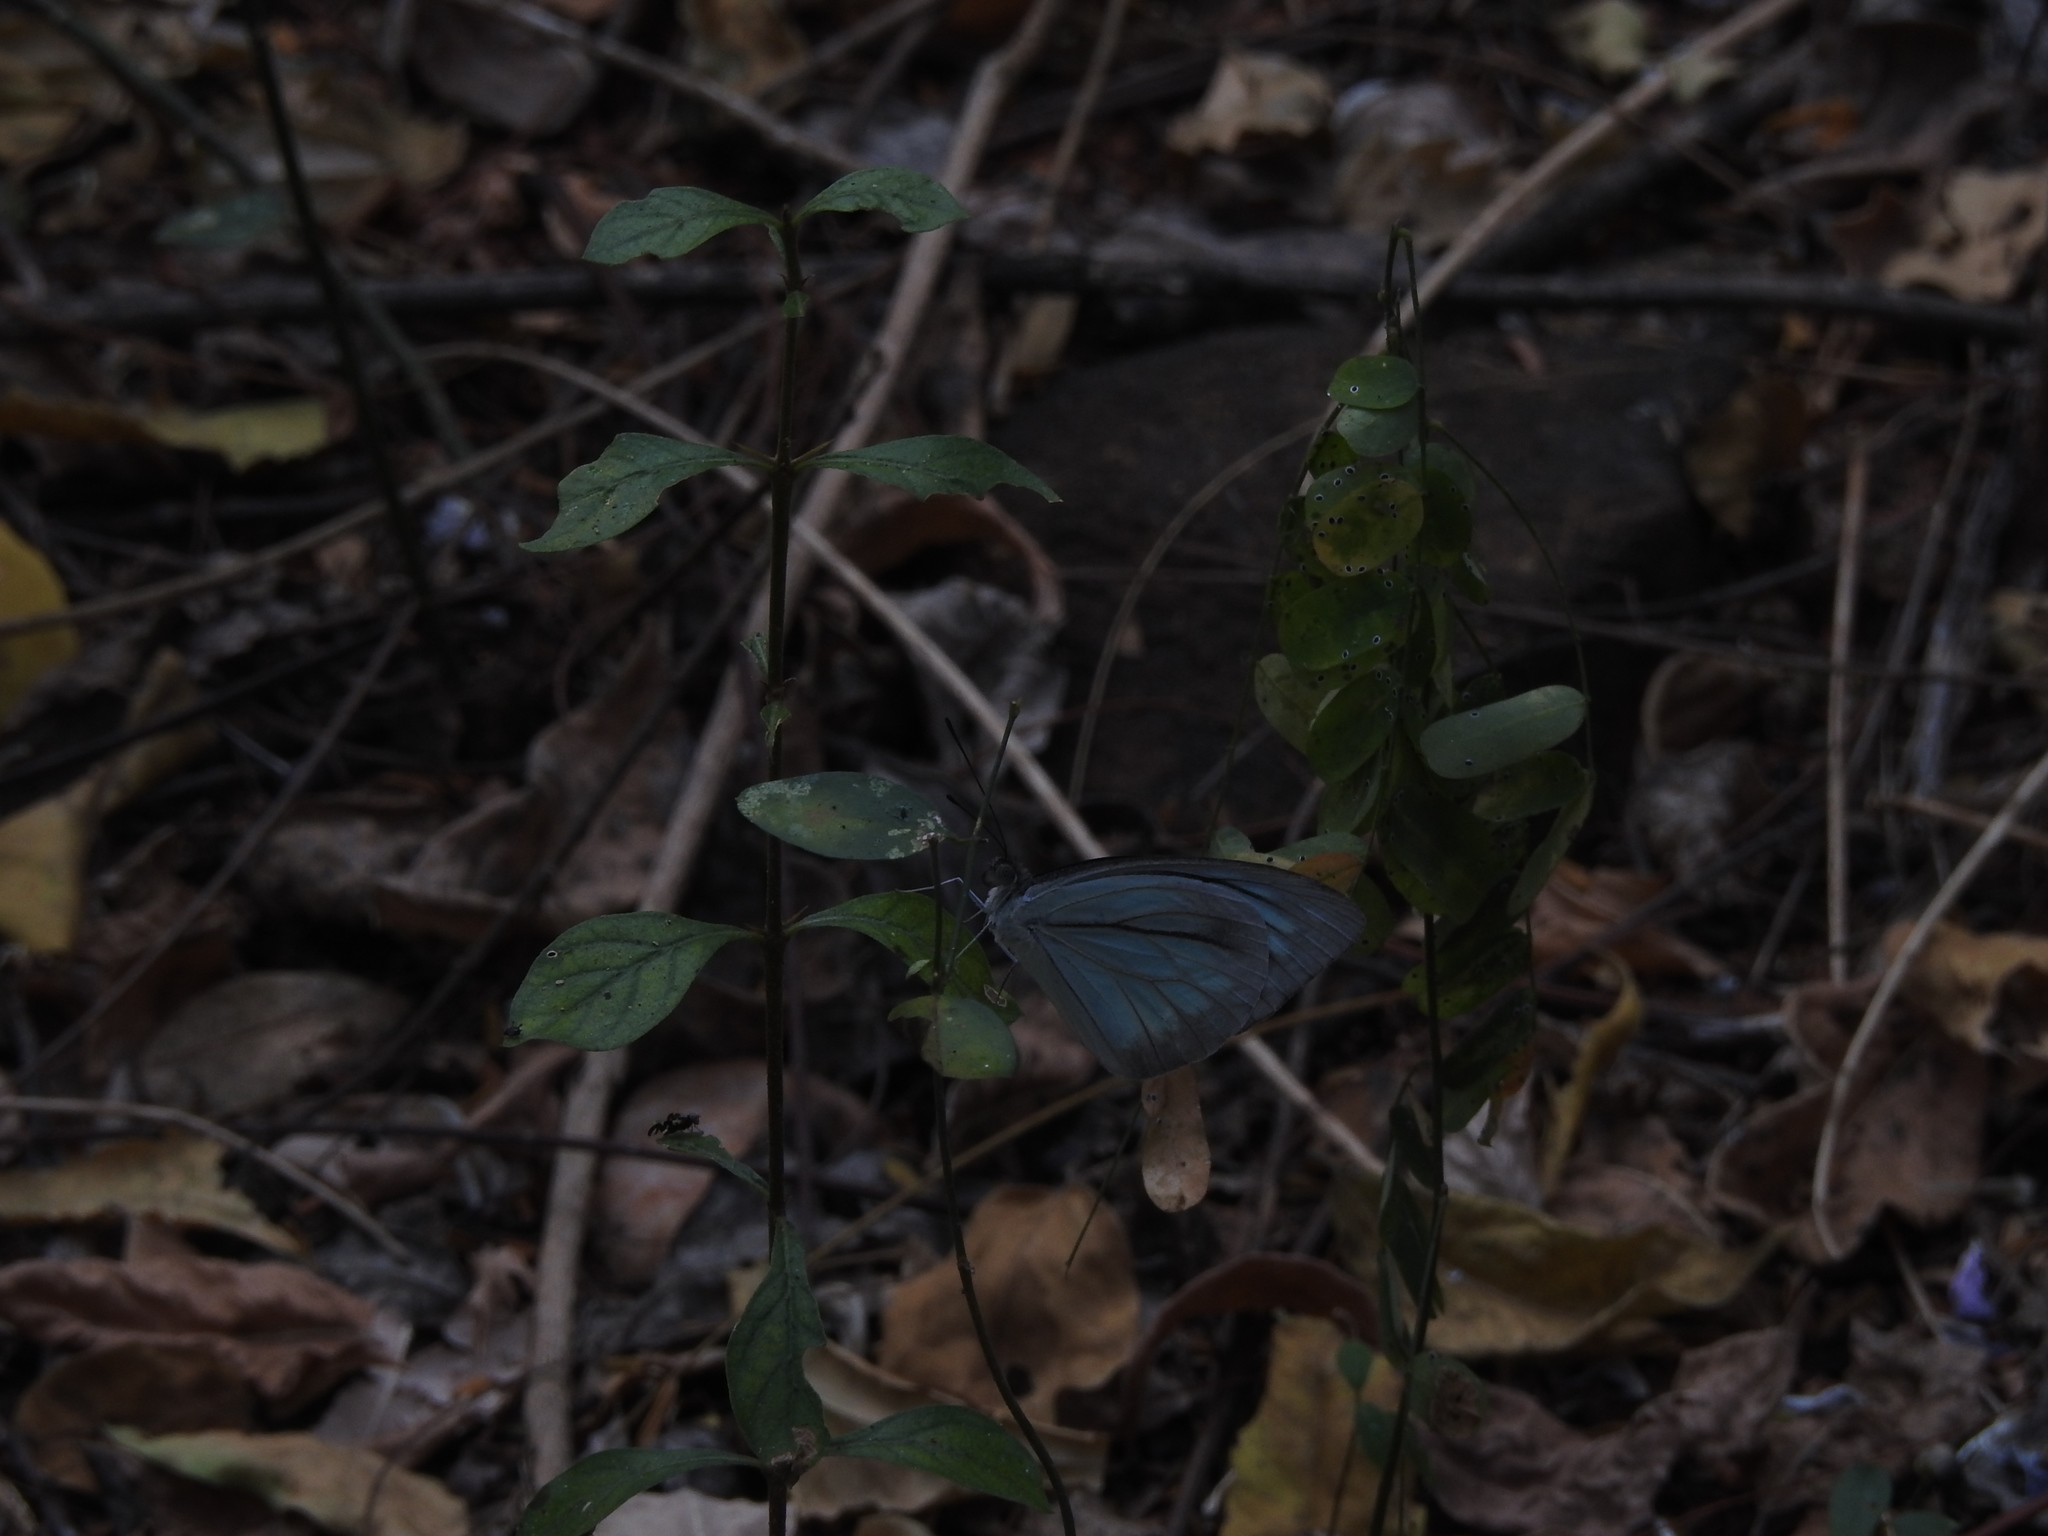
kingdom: Animalia
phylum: Arthropoda
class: Insecta
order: Lepidoptera
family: Pieridae
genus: Pareronia
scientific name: Pareronia hippia
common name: Indian wanderer
